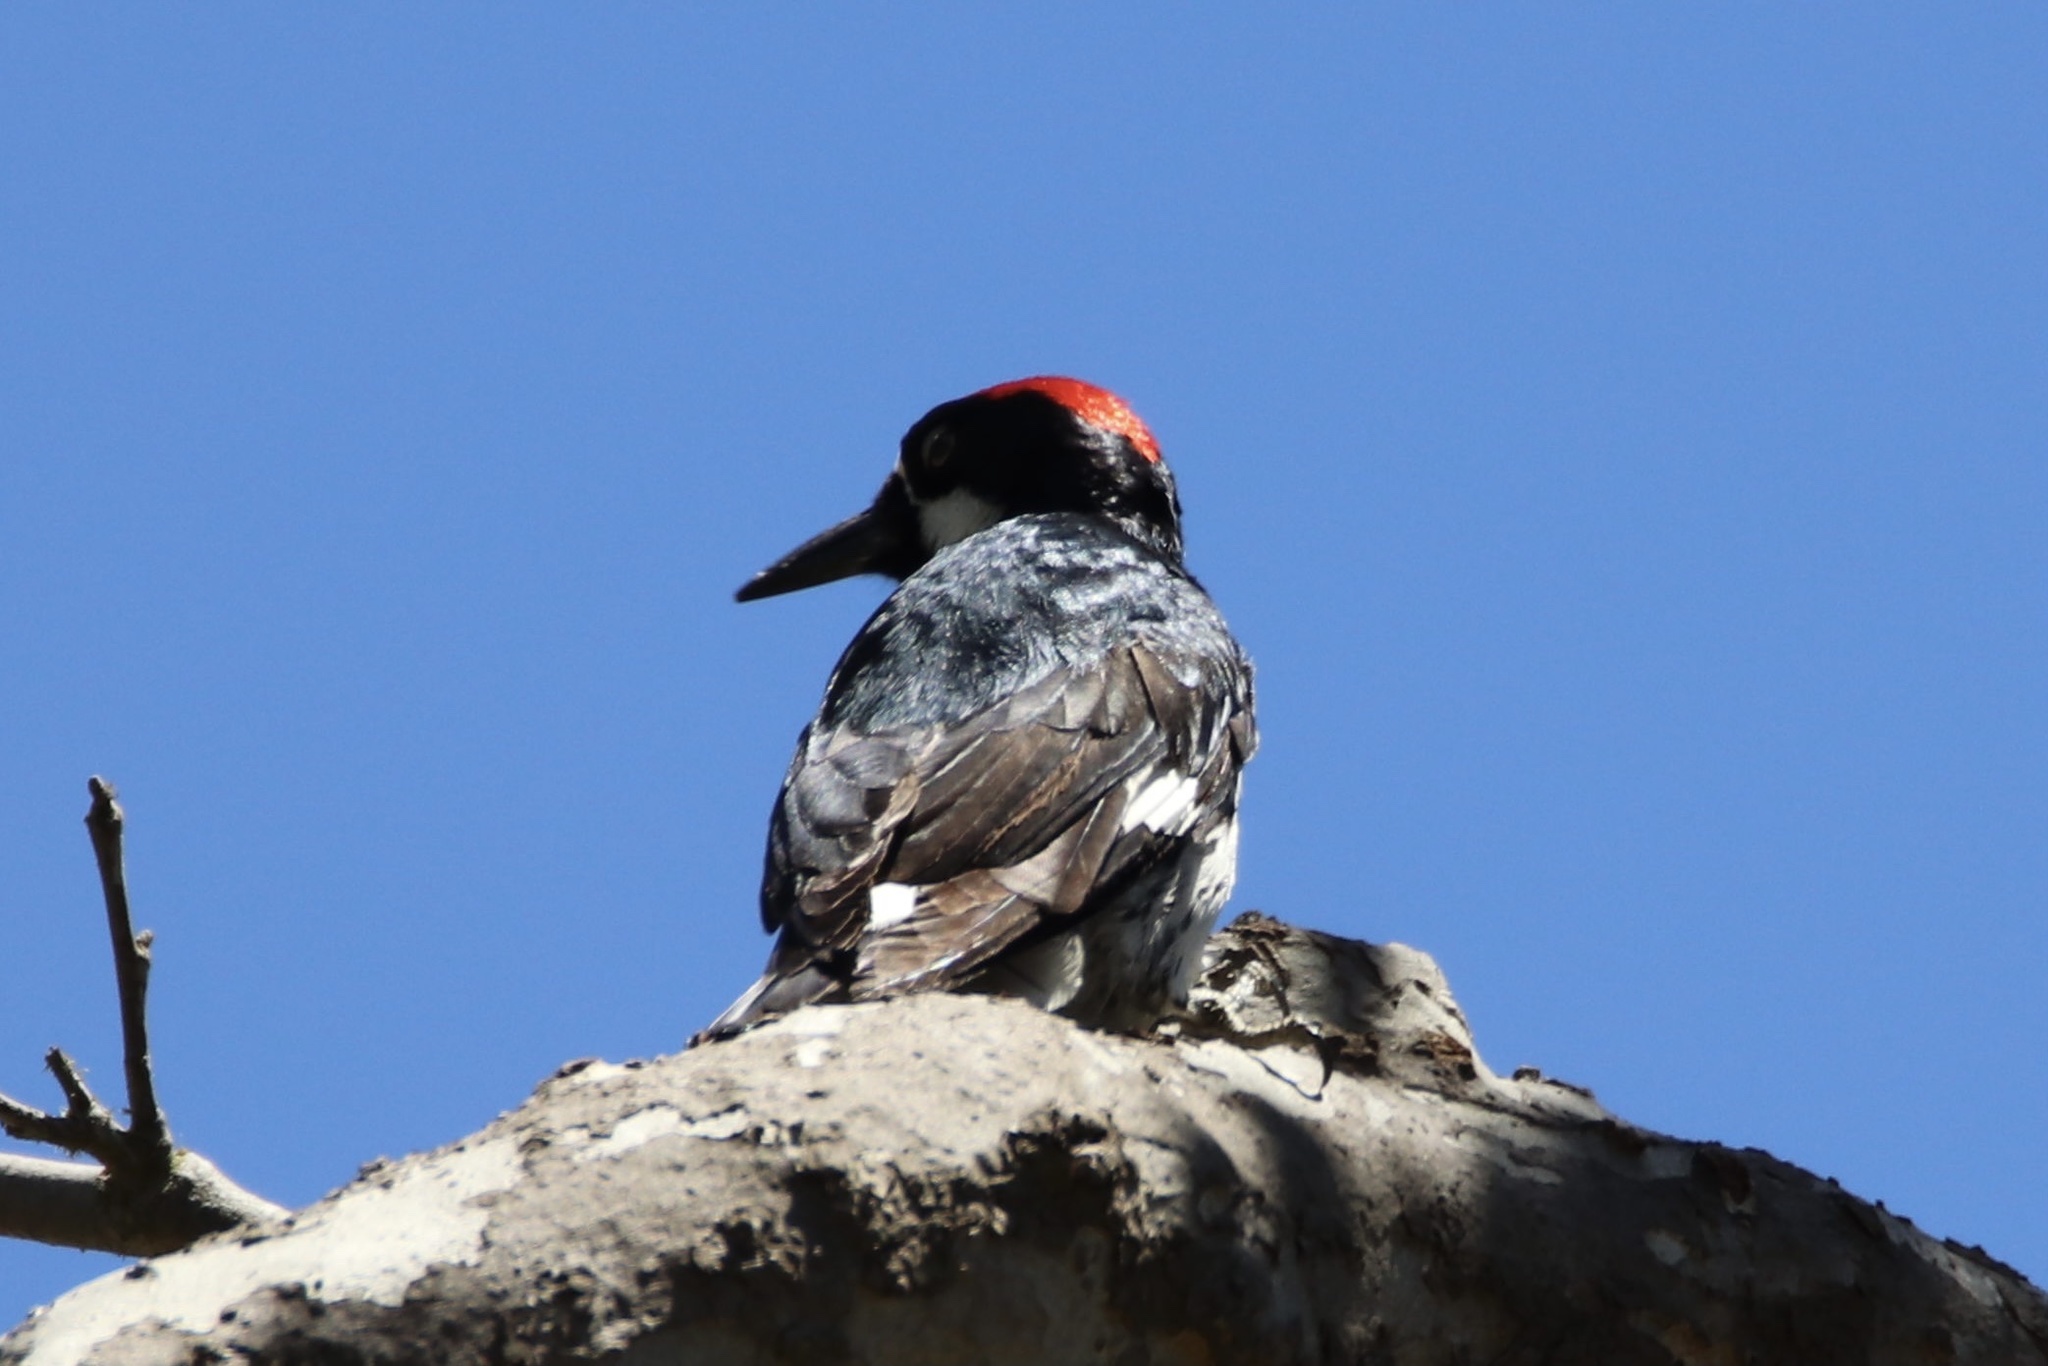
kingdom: Animalia
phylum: Chordata
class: Aves
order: Piciformes
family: Picidae
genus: Melanerpes
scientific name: Melanerpes formicivorus
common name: Acorn woodpecker
